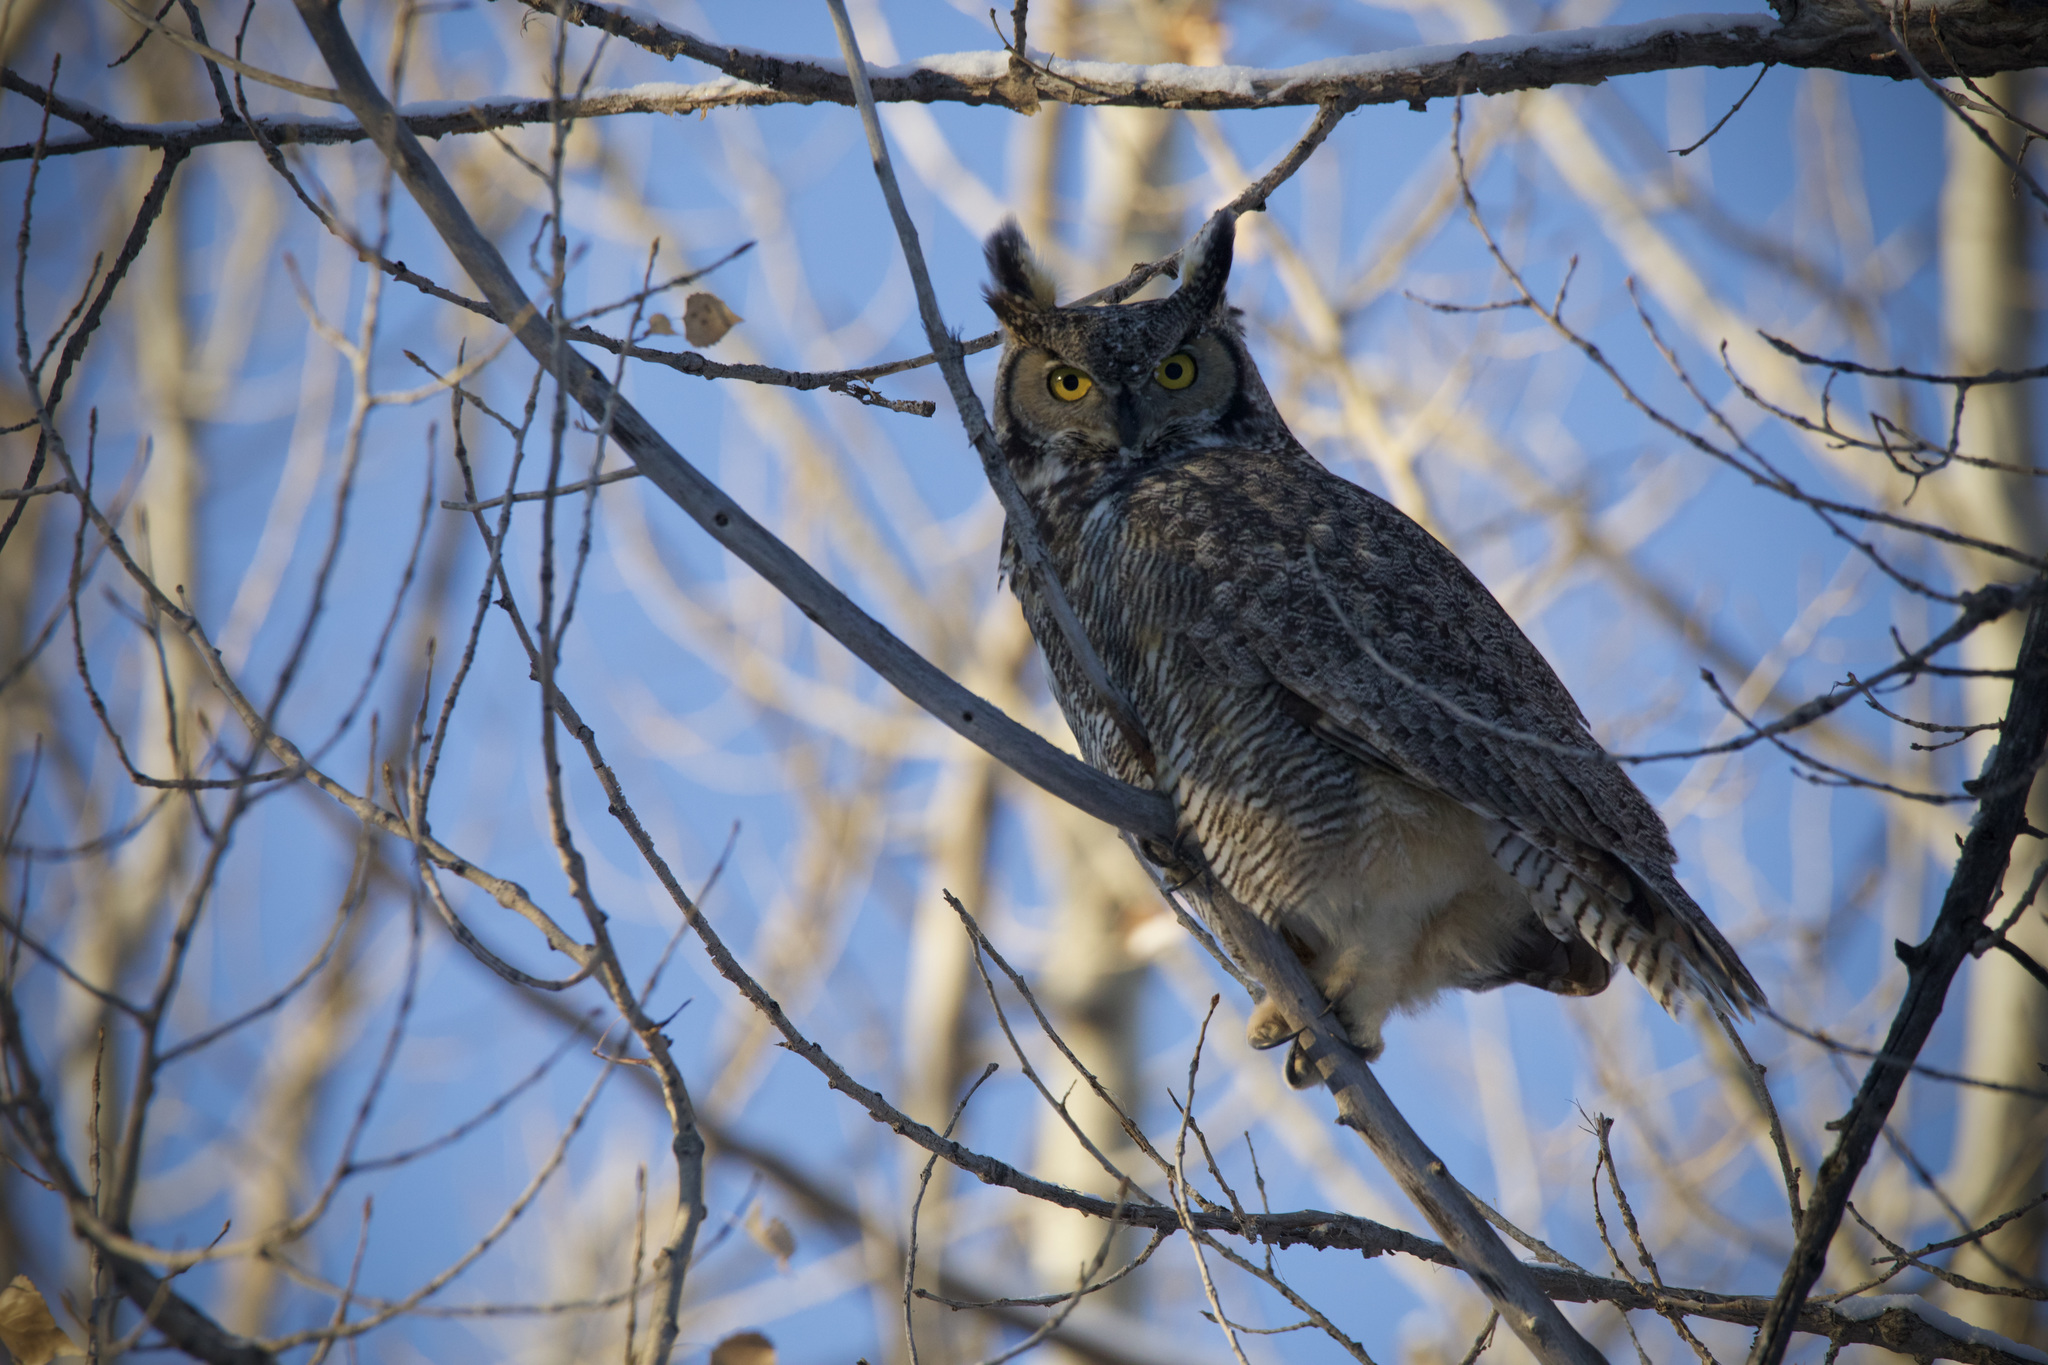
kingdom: Animalia
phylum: Chordata
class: Aves
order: Strigiformes
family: Strigidae
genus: Bubo
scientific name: Bubo virginianus
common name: Great horned owl
